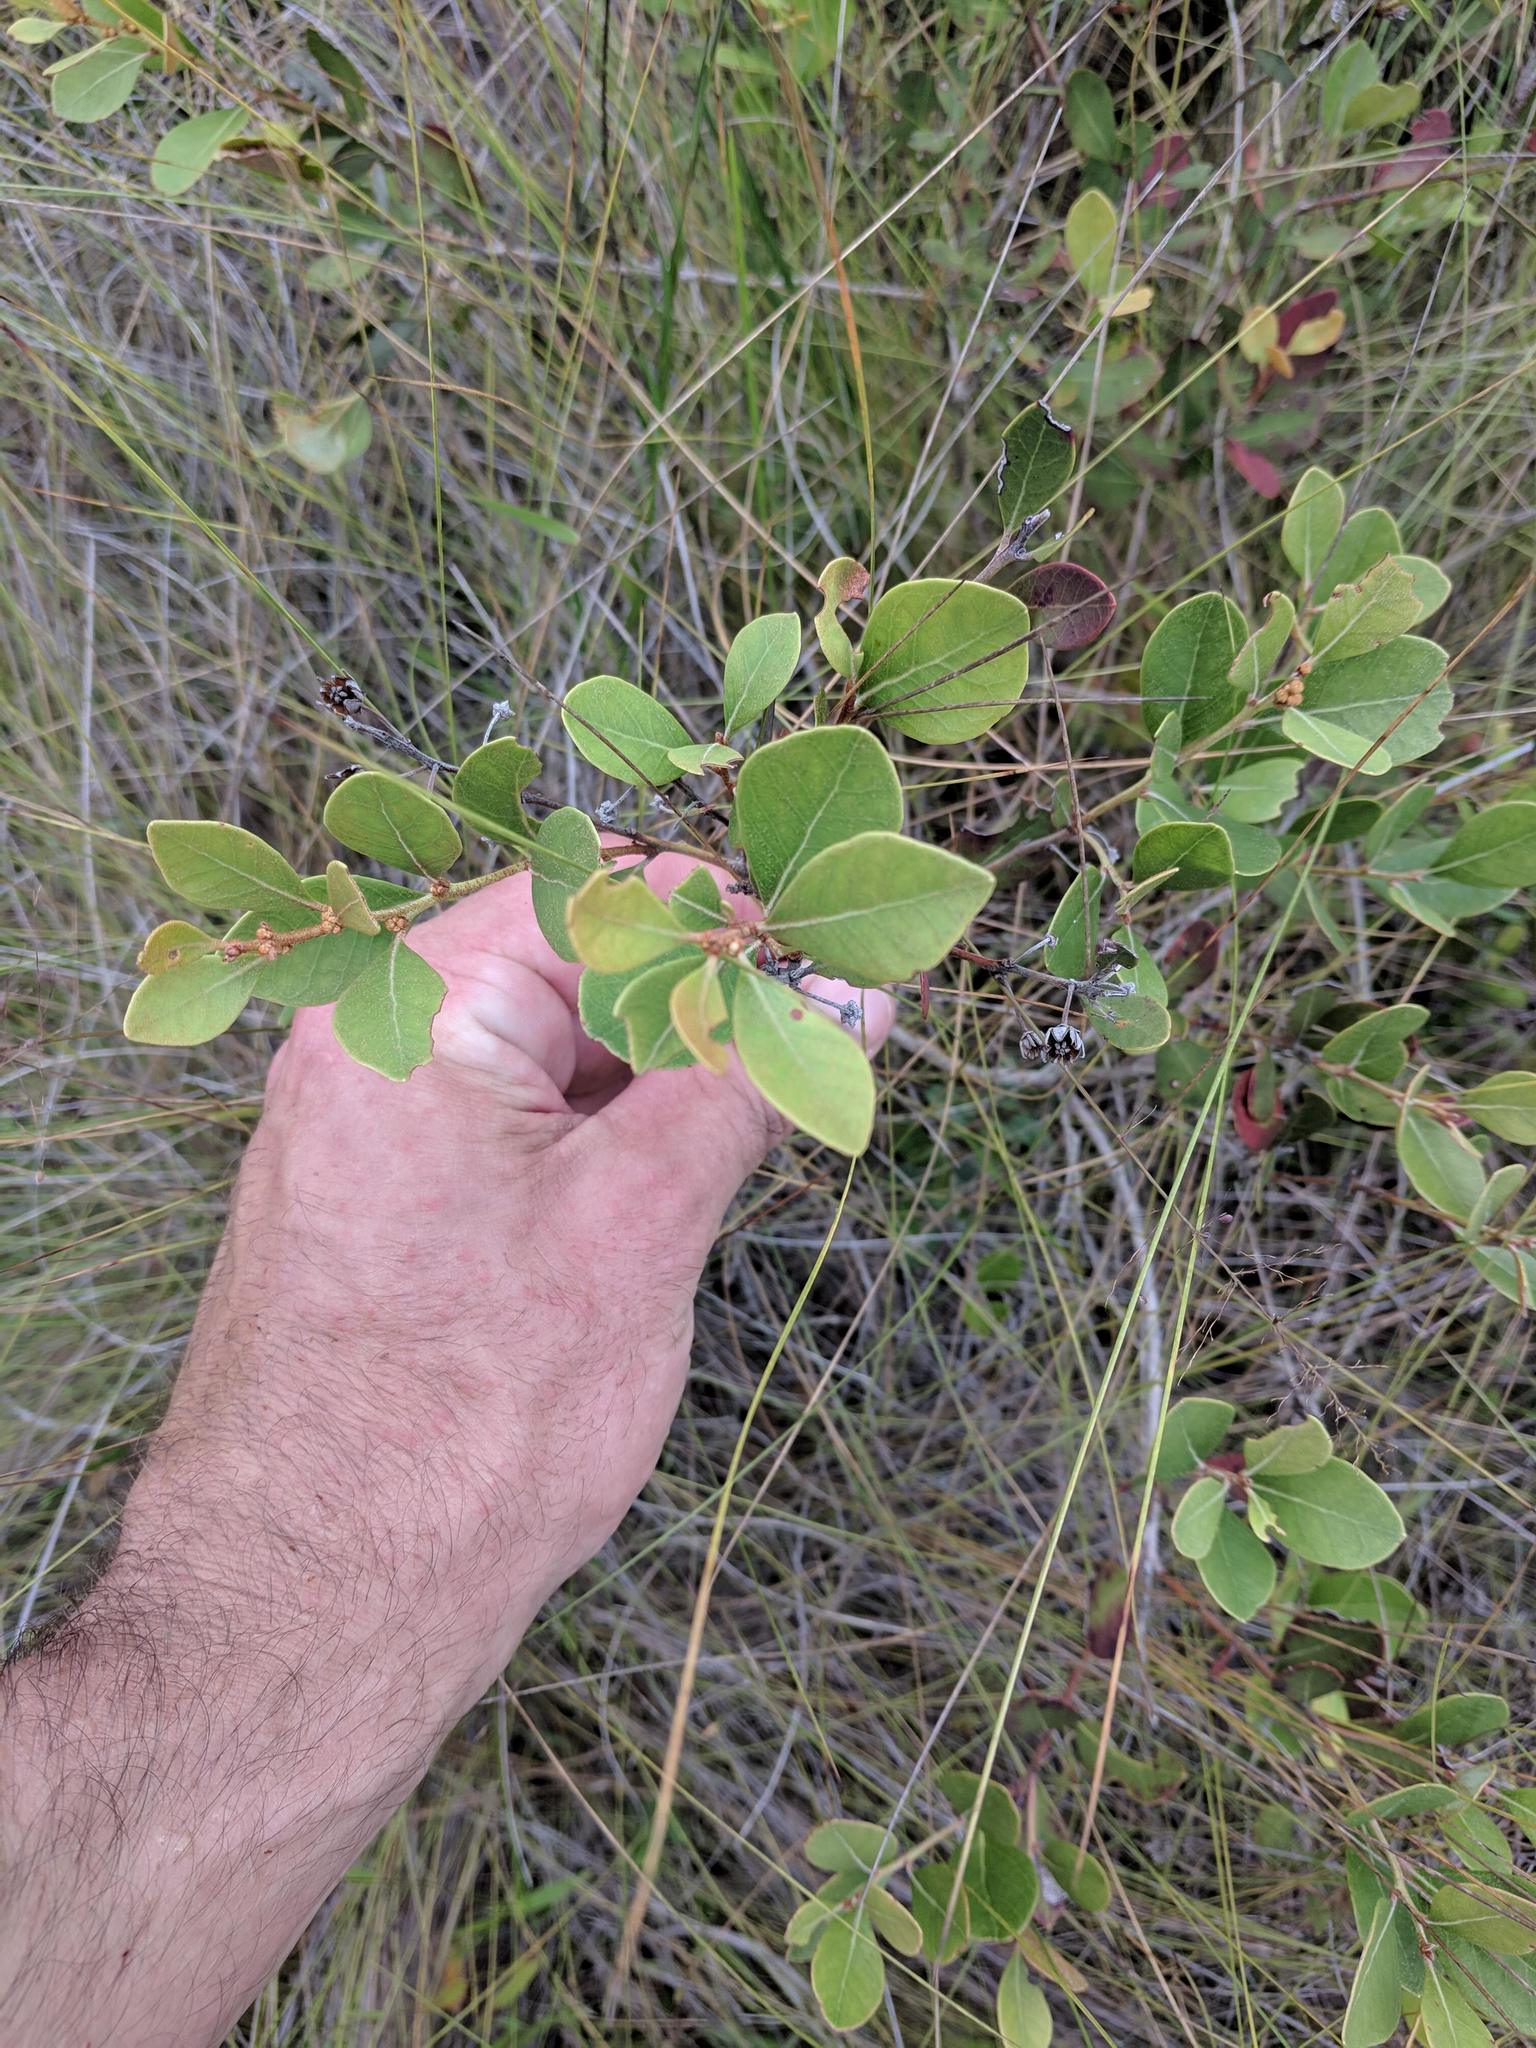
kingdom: Plantae
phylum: Tracheophyta
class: Magnoliopsida
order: Ericales
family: Ericaceae
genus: Lyonia
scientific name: Lyonia fruticosa
